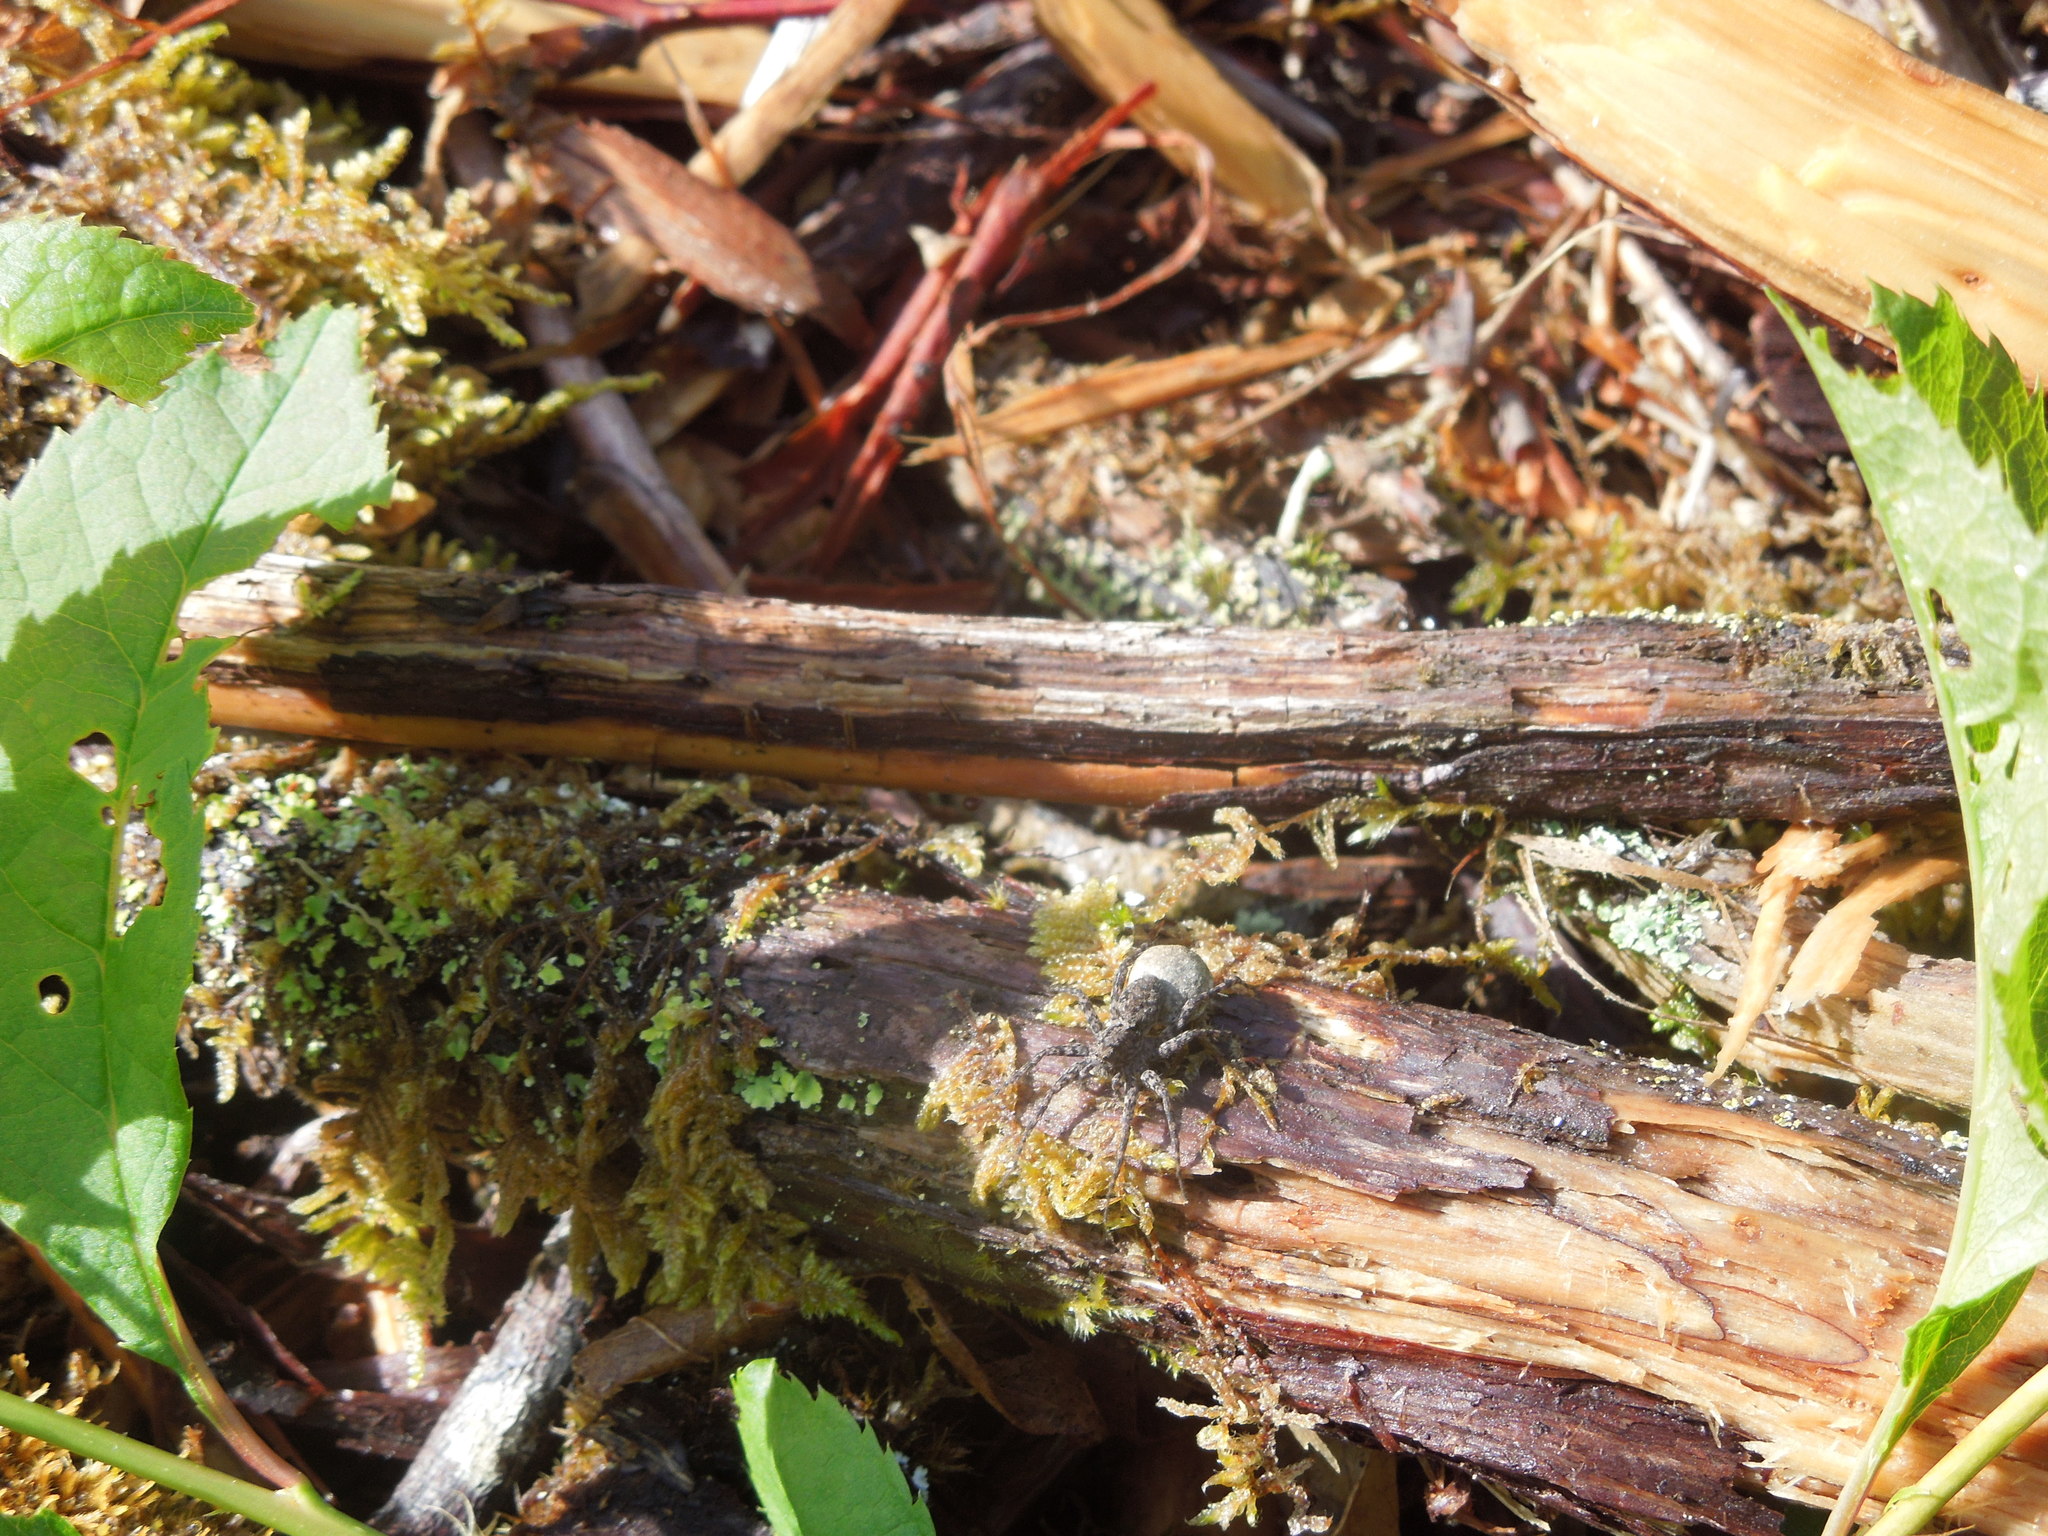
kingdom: Animalia
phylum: Arthropoda
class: Arachnida
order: Araneae
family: Lycosidae
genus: Pardosa
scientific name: Pardosa
